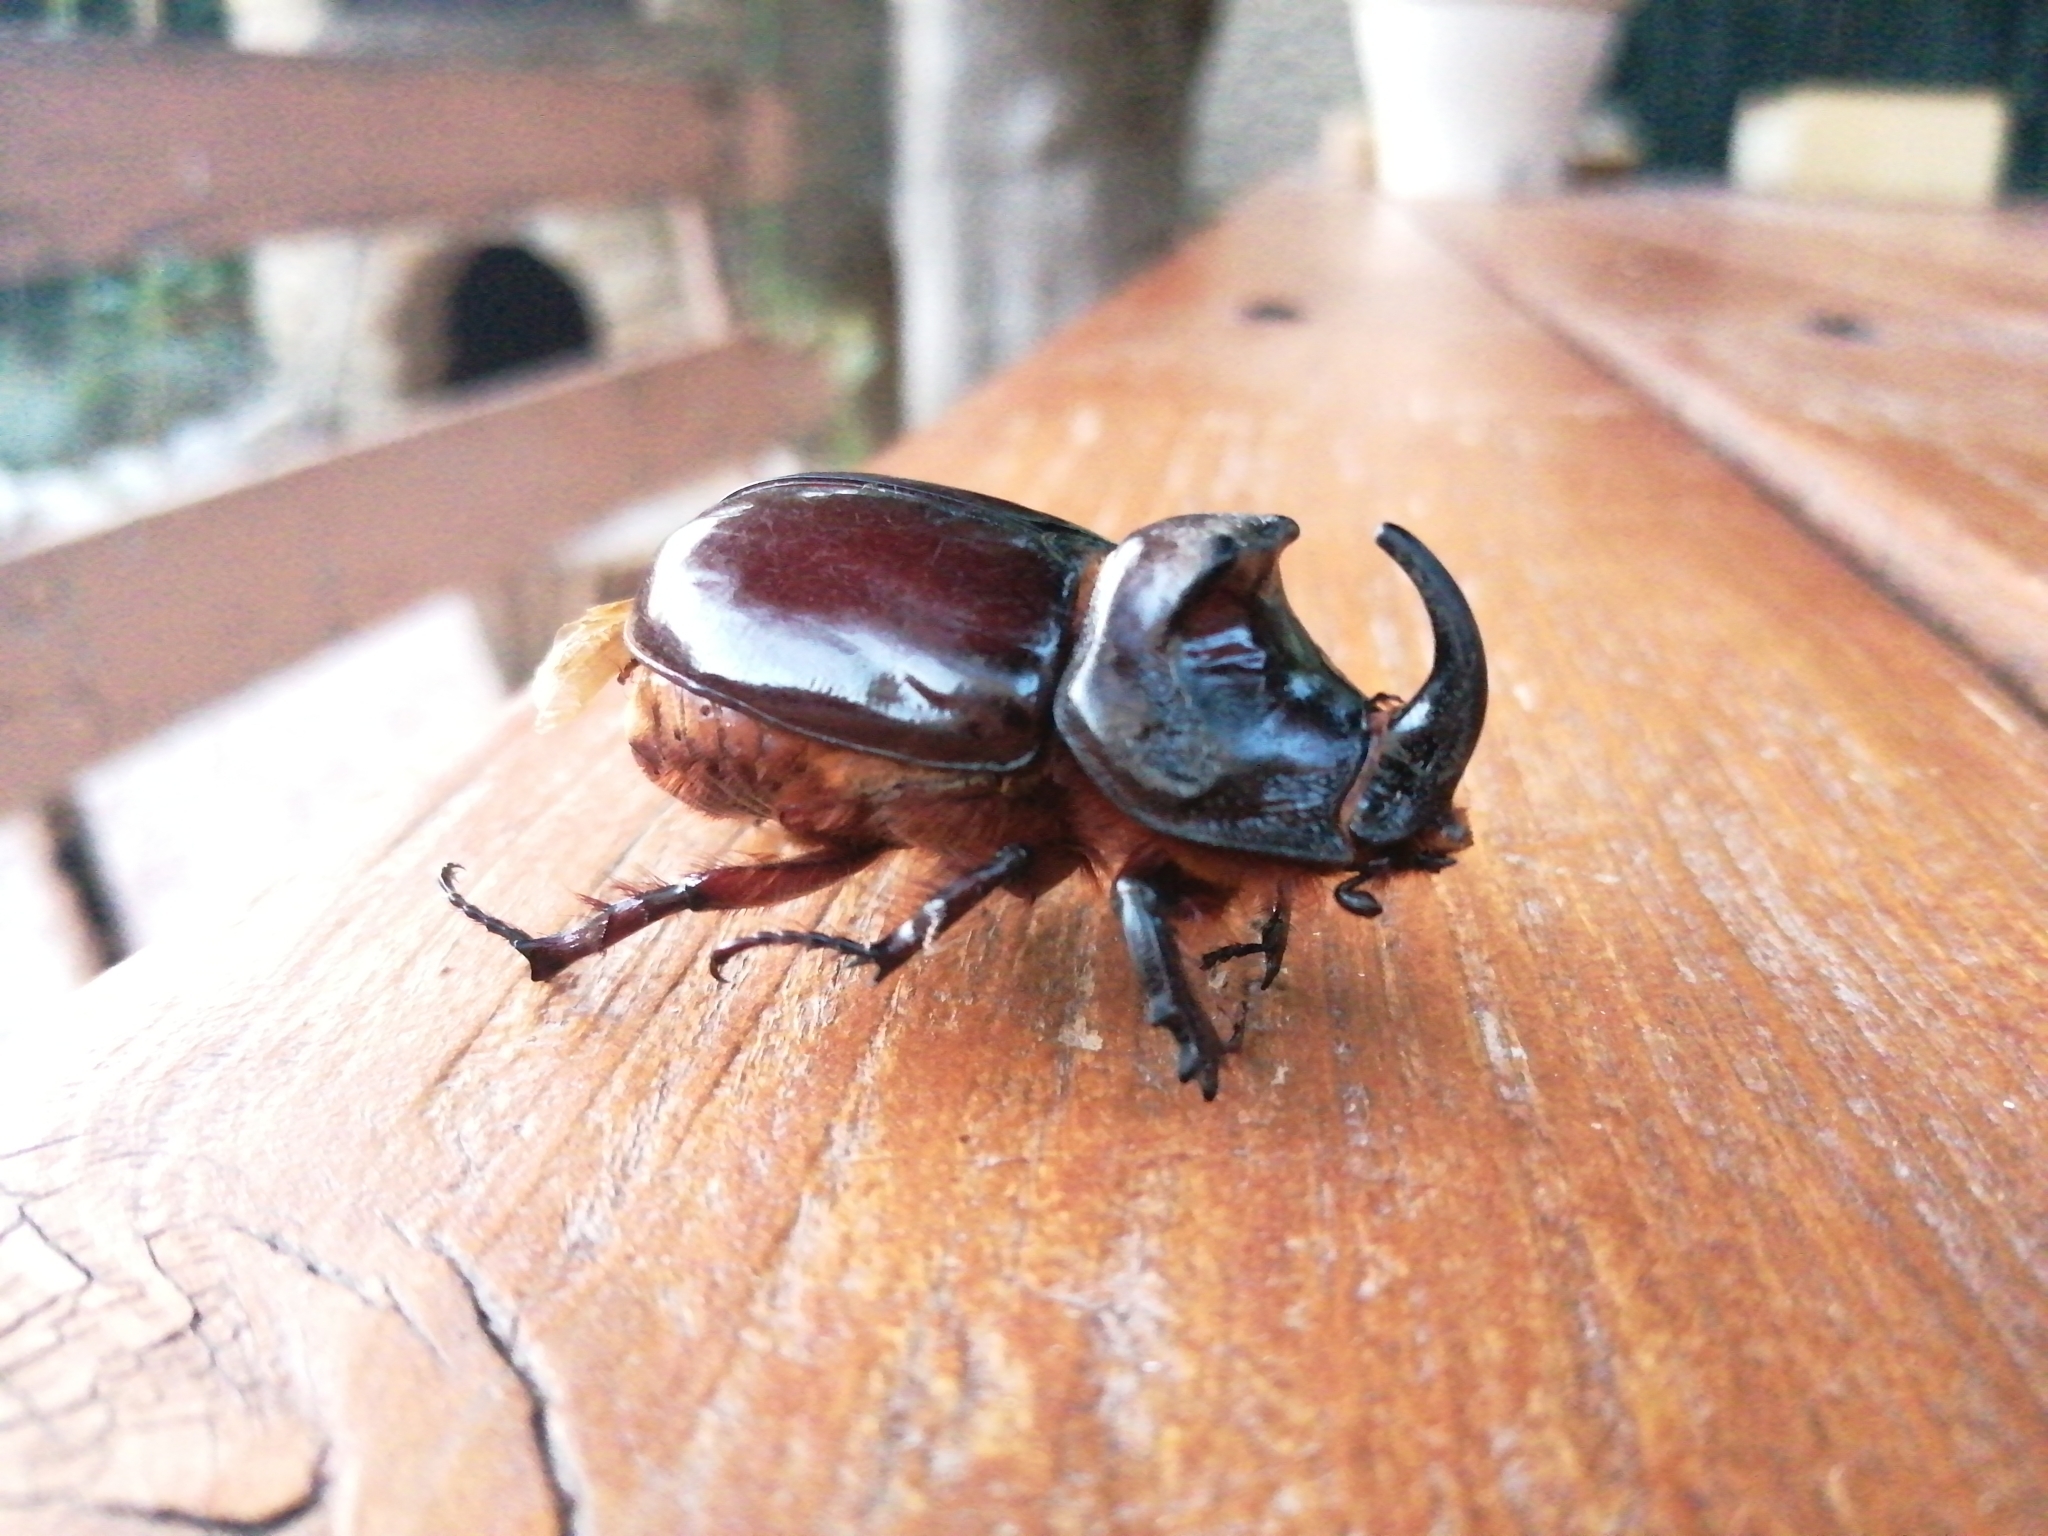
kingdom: Animalia
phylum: Arthropoda
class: Insecta
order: Coleoptera
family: Scarabaeidae
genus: Oryctes
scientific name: Oryctes nasicornis
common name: European rhinoceros beetle
